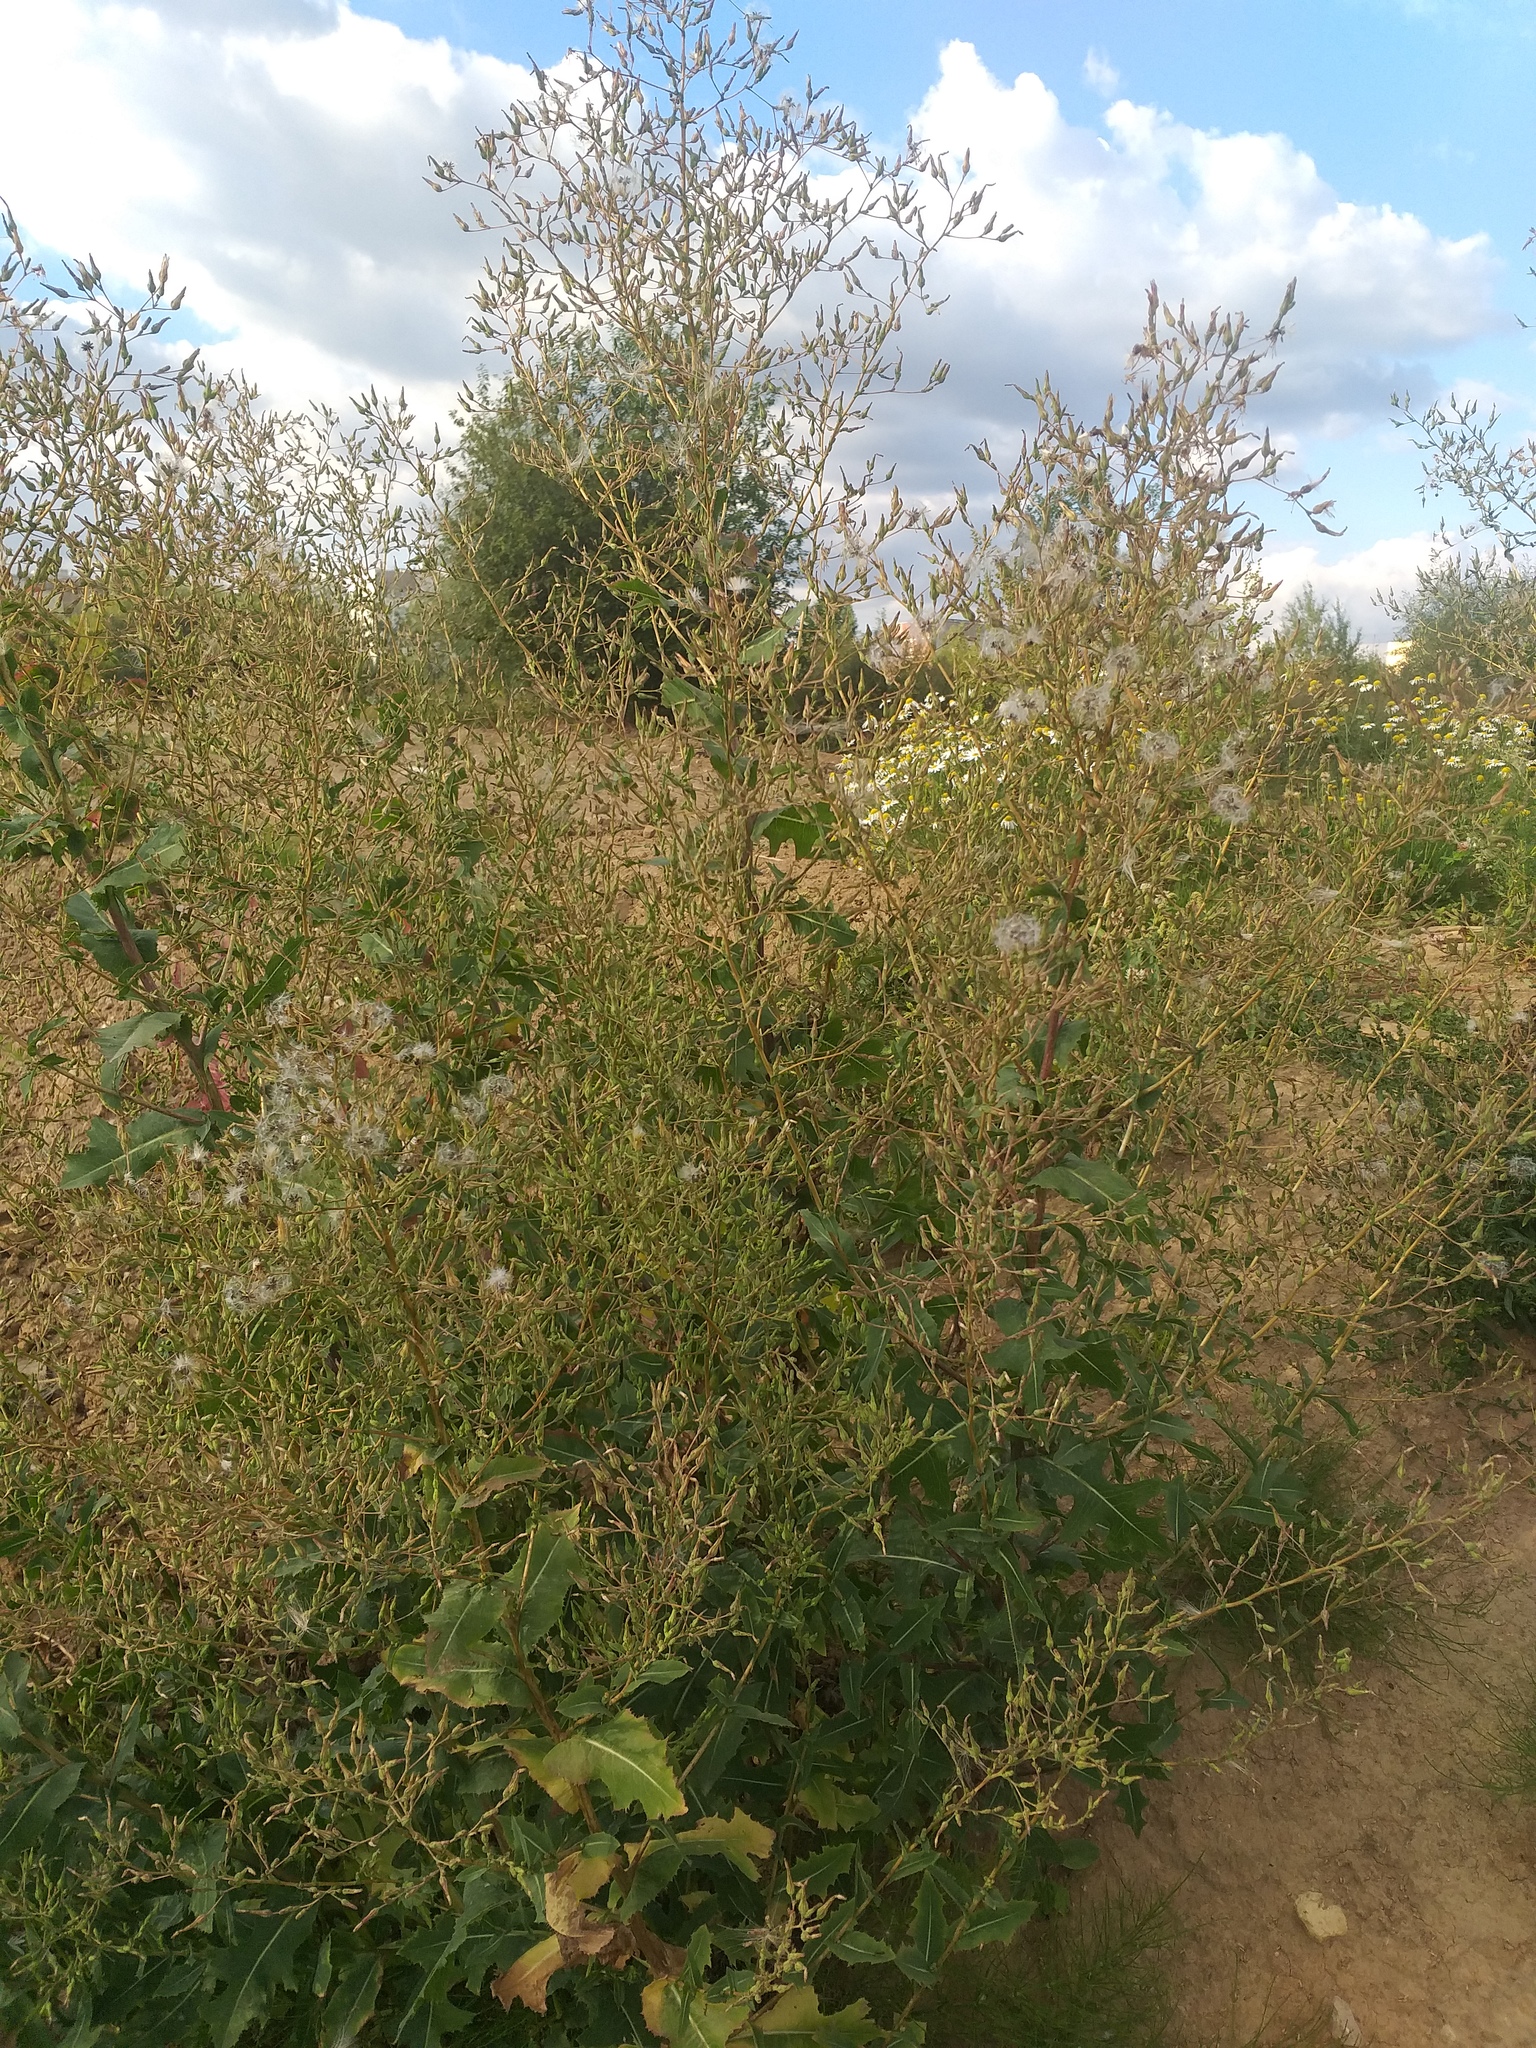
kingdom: Plantae
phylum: Tracheophyta
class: Magnoliopsida
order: Asterales
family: Asteraceae
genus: Lactuca
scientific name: Lactuca serriola
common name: Prickly lettuce
